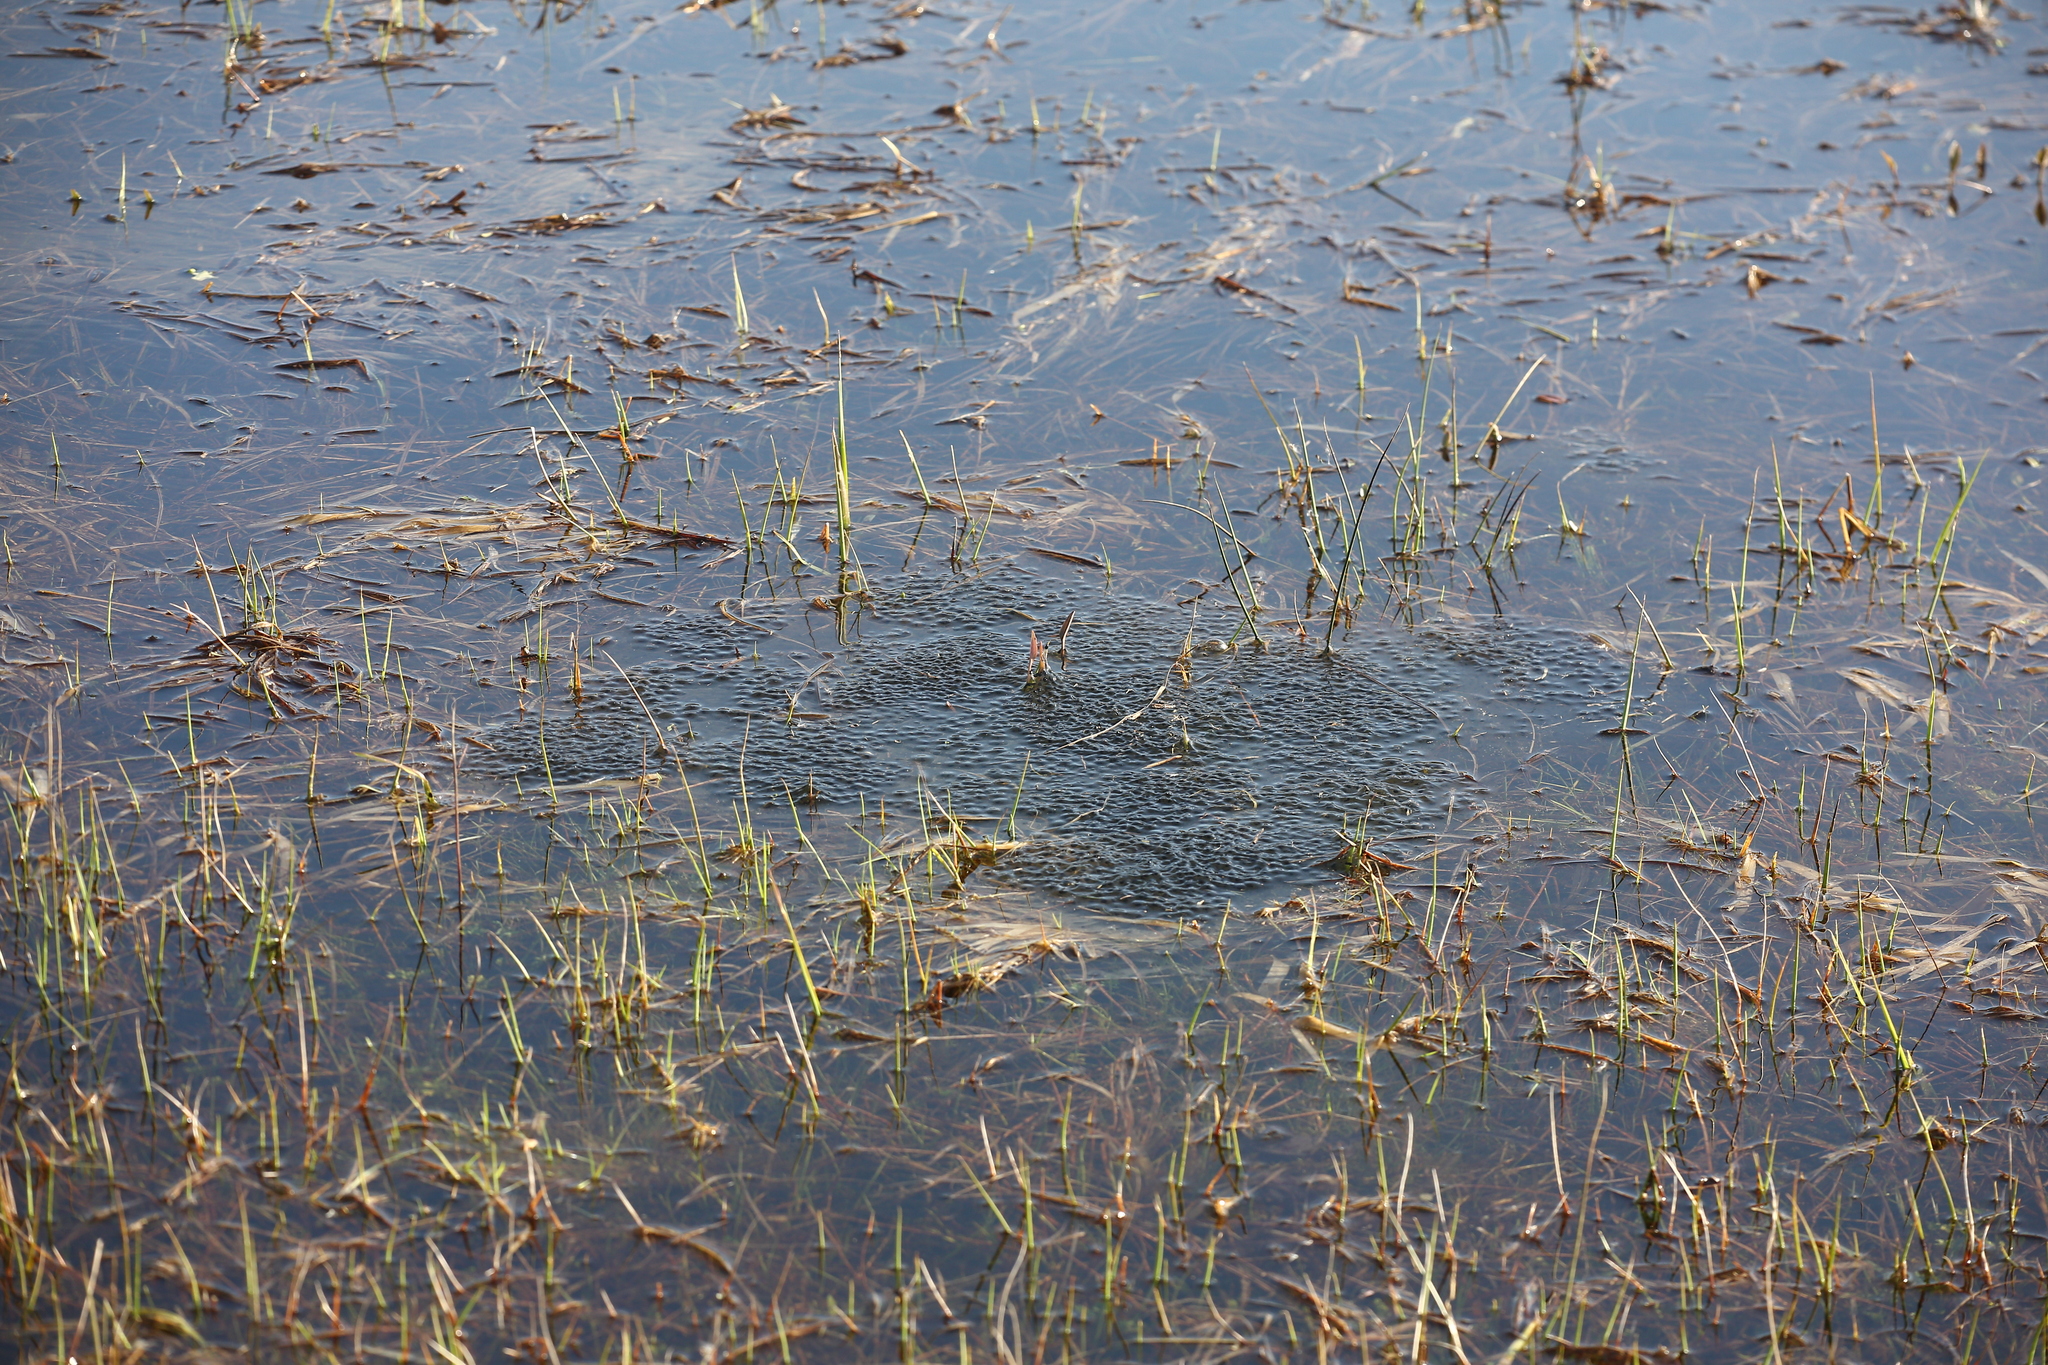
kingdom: Animalia
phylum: Chordata
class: Amphibia
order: Anura
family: Ranidae
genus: Rana
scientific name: Rana temporaria
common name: Common frog
